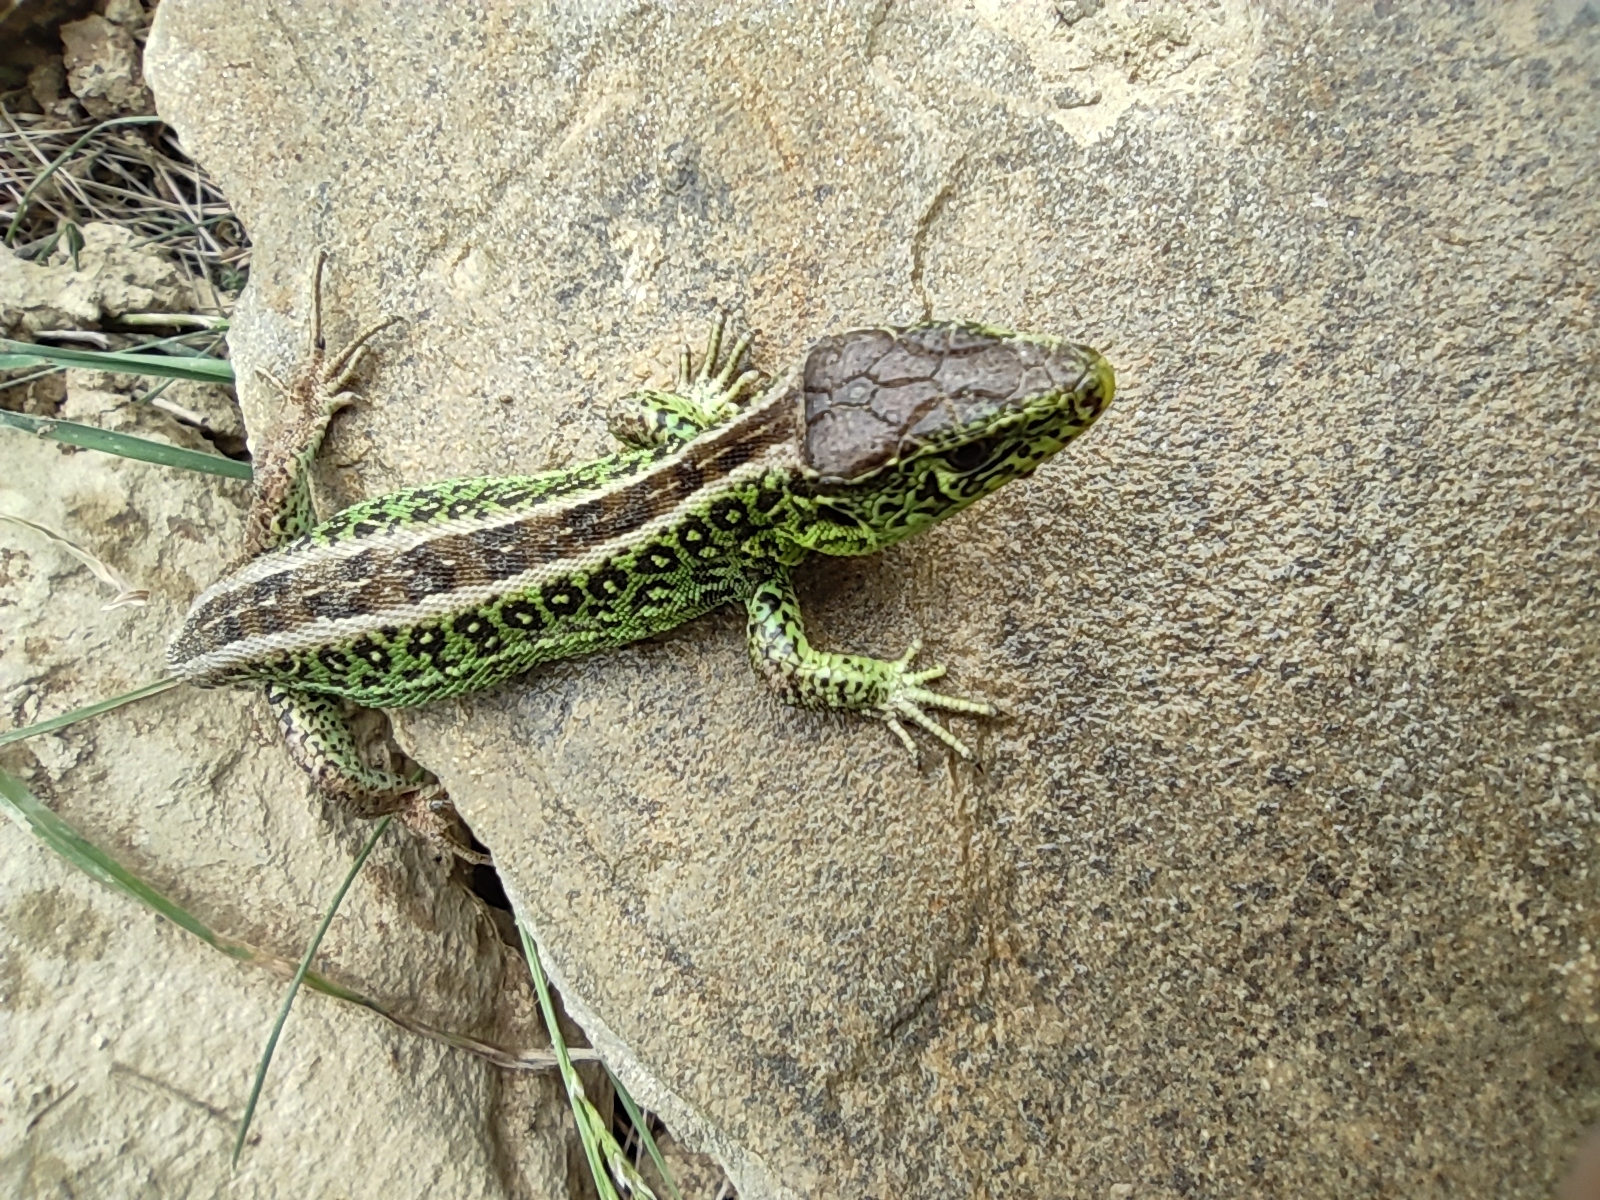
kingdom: Animalia
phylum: Chordata
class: Squamata
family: Lacertidae
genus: Lacerta
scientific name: Lacerta agilis
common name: Sand lizard
